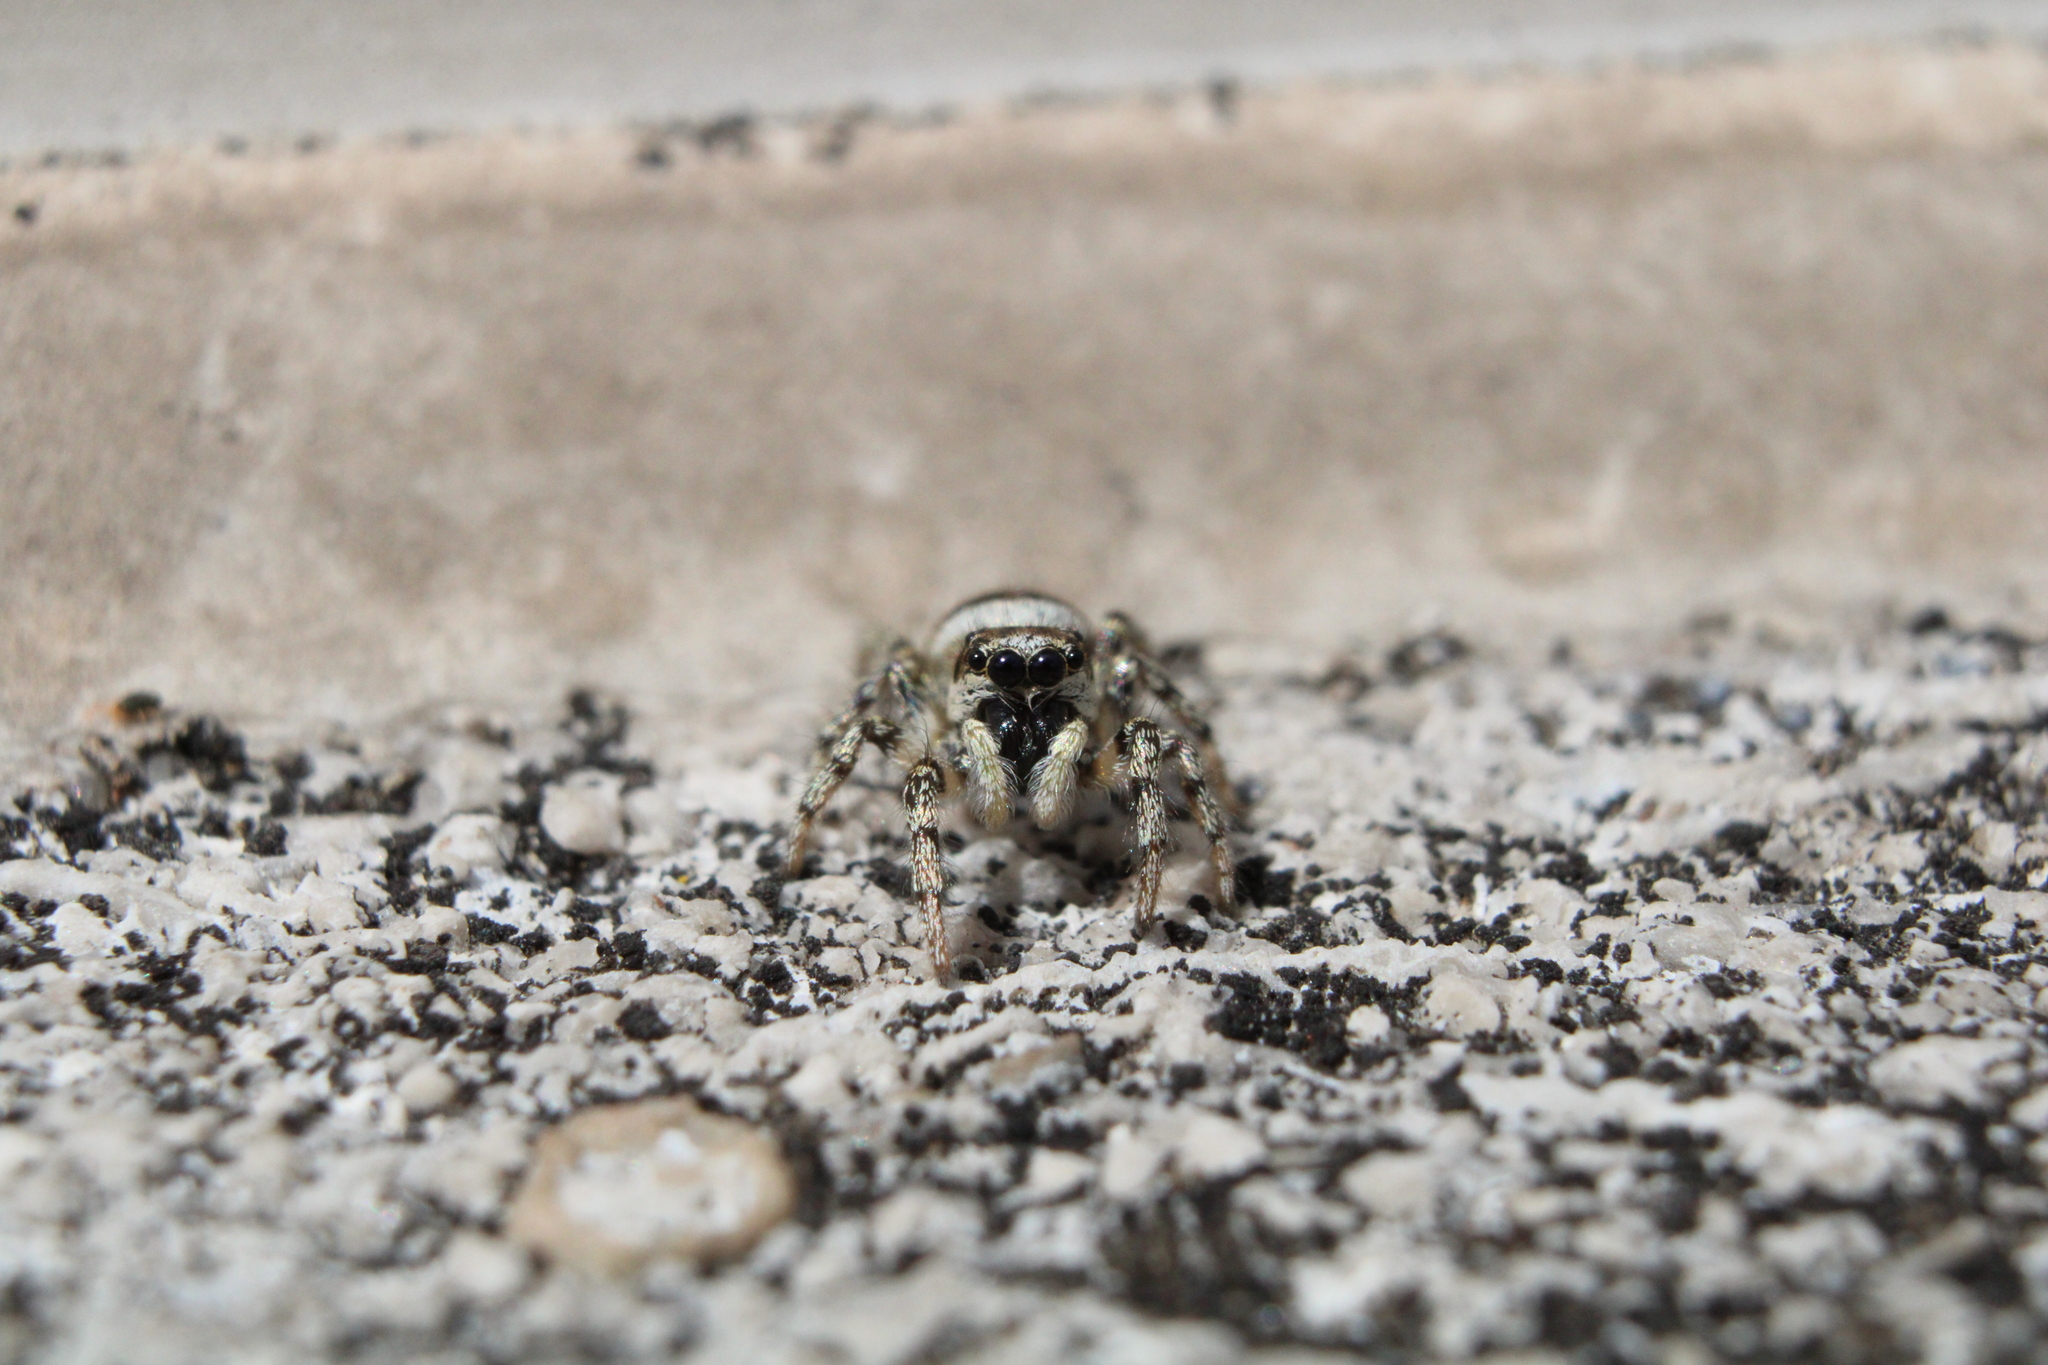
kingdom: Animalia
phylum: Arthropoda
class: Arachnida
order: Araneae
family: Salticidae
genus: Salticus
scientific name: Salticus scenicus
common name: Zebra jumper
